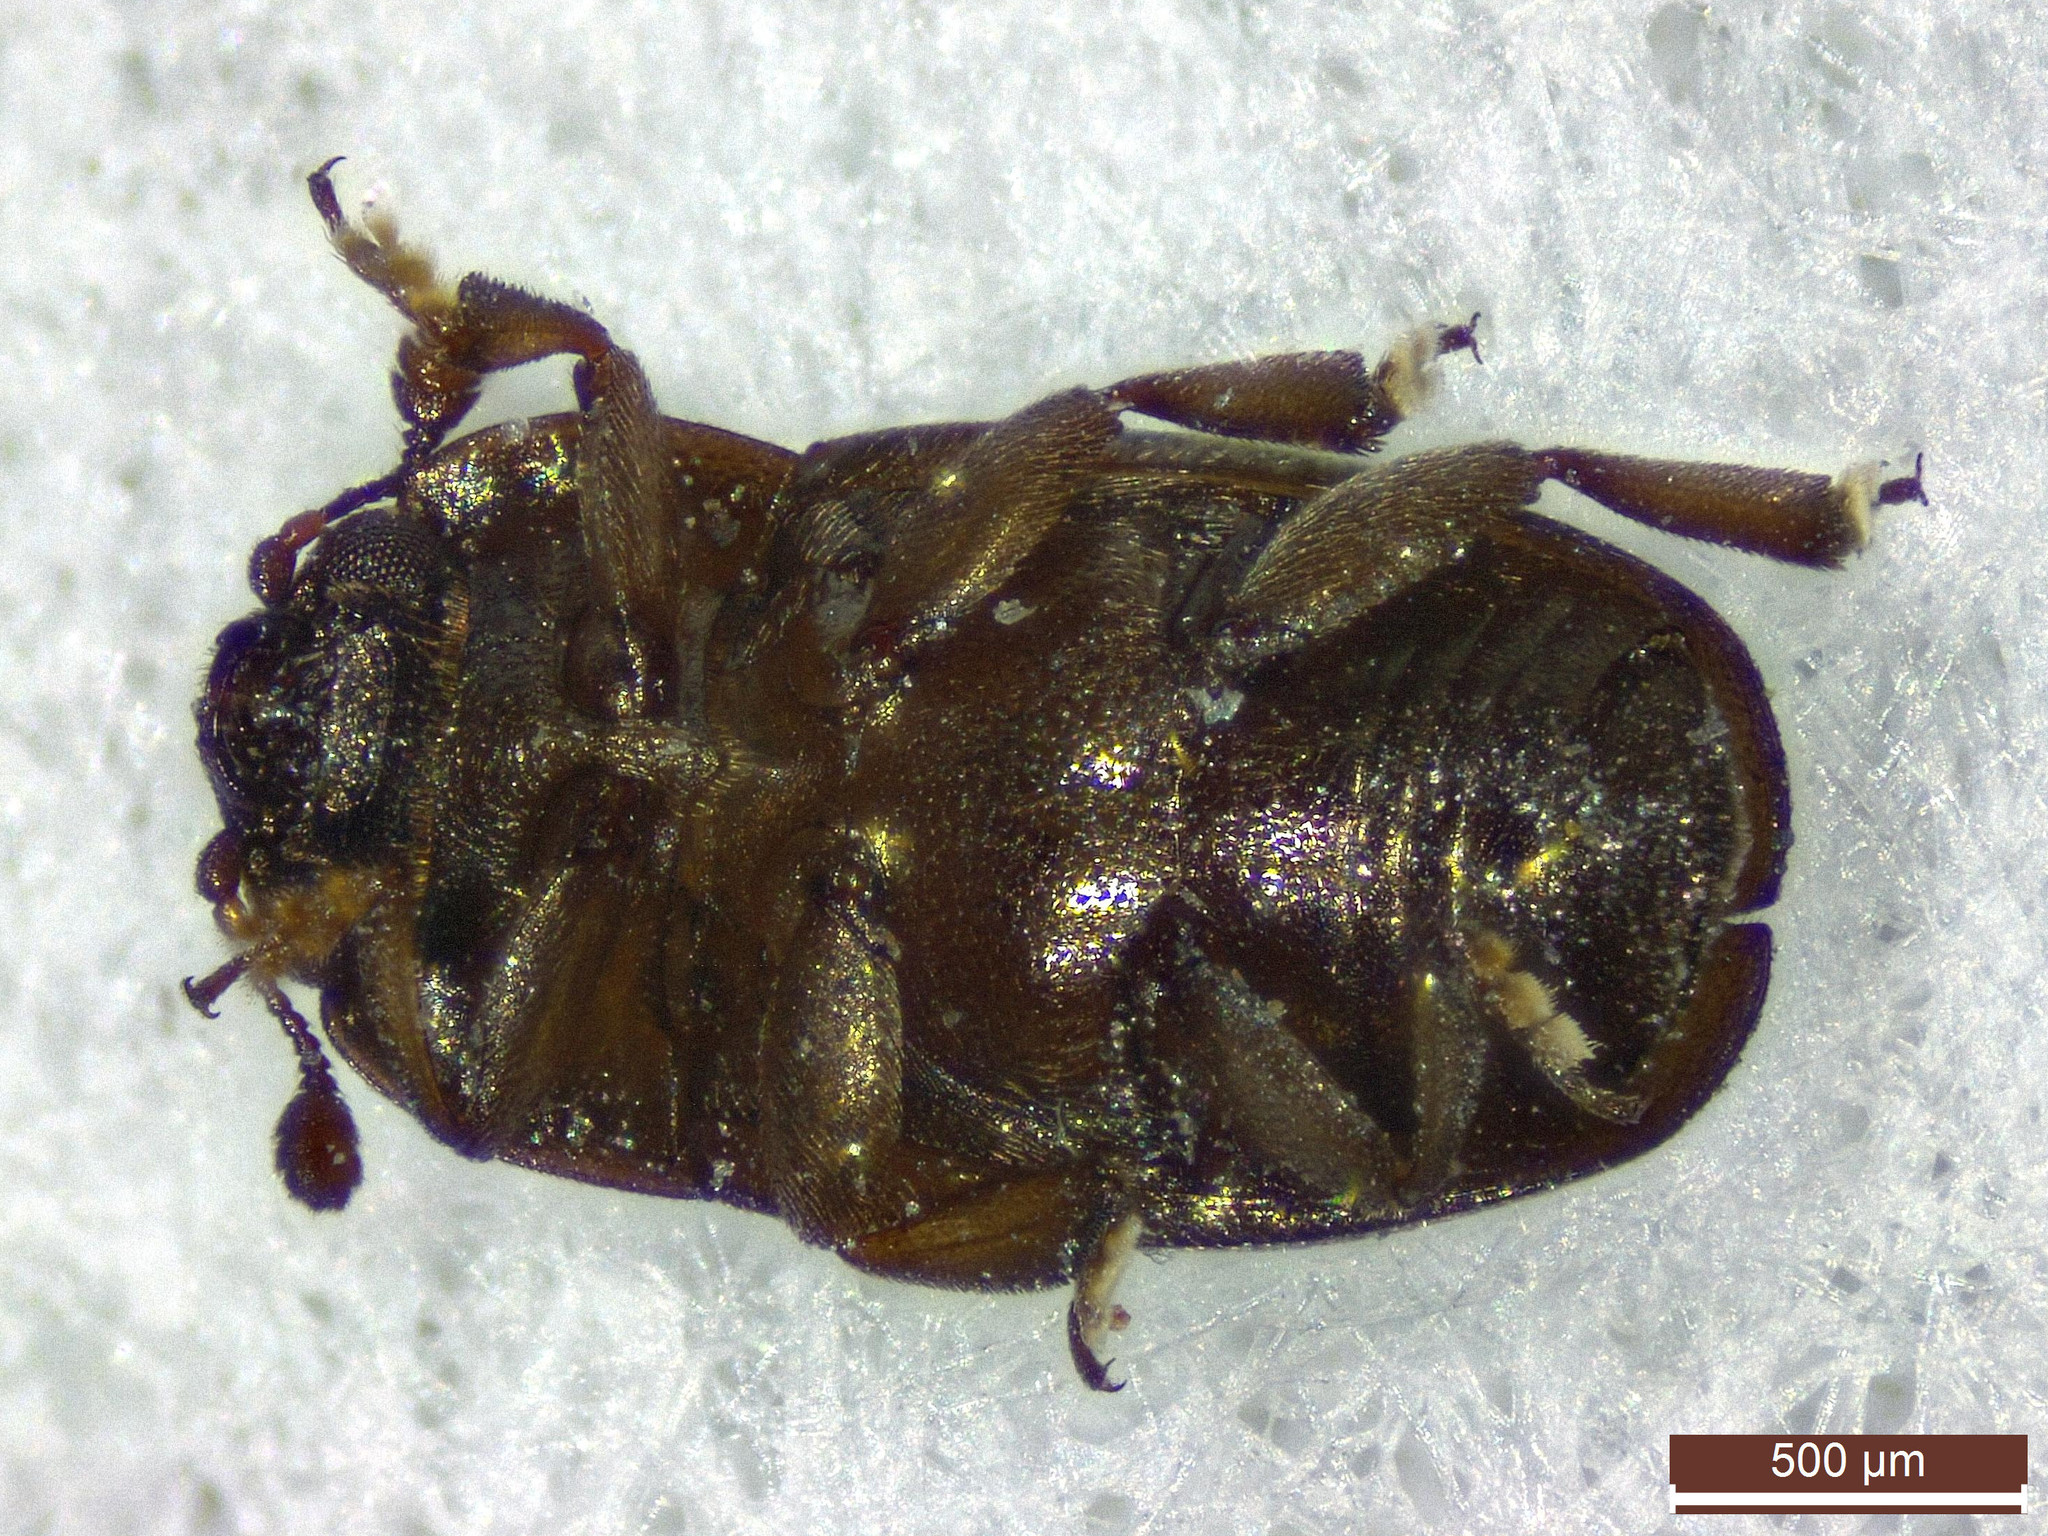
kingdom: Animalia
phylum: Arthropoda
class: Insecta
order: Coleoptera
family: Nitidulidae
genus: Brassicogethes
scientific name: Brassicogethes aeneus
